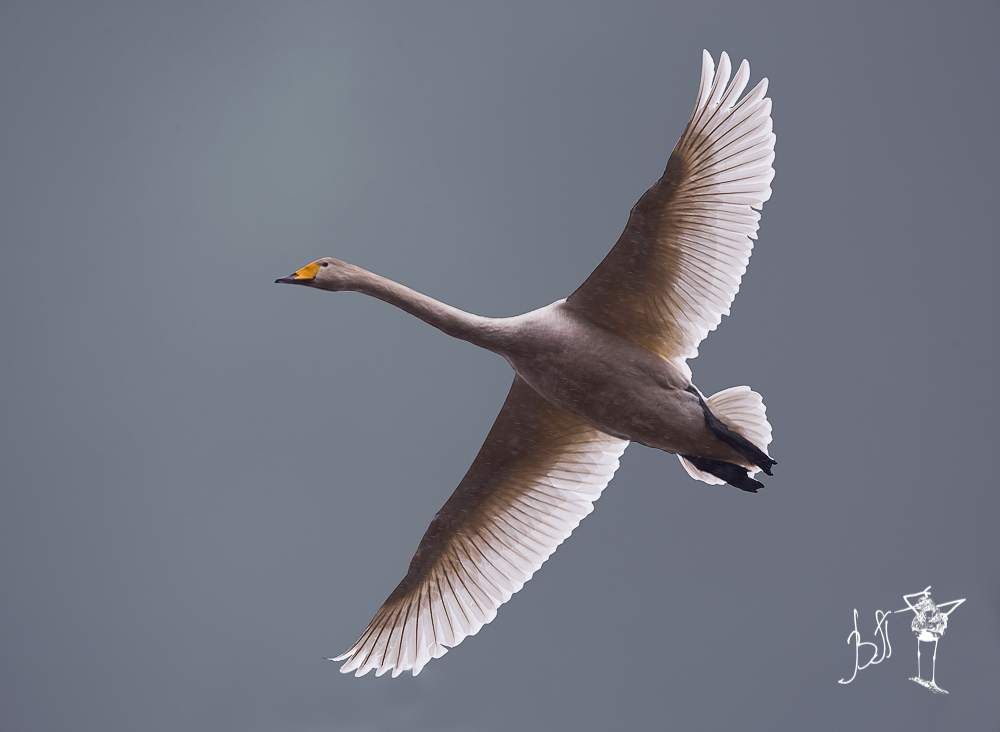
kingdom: Animalia
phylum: Chordata
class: Aves
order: Anseriformes
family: Anatidae
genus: Cygnus
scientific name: Cygnus cygnus
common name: Whooper swan
